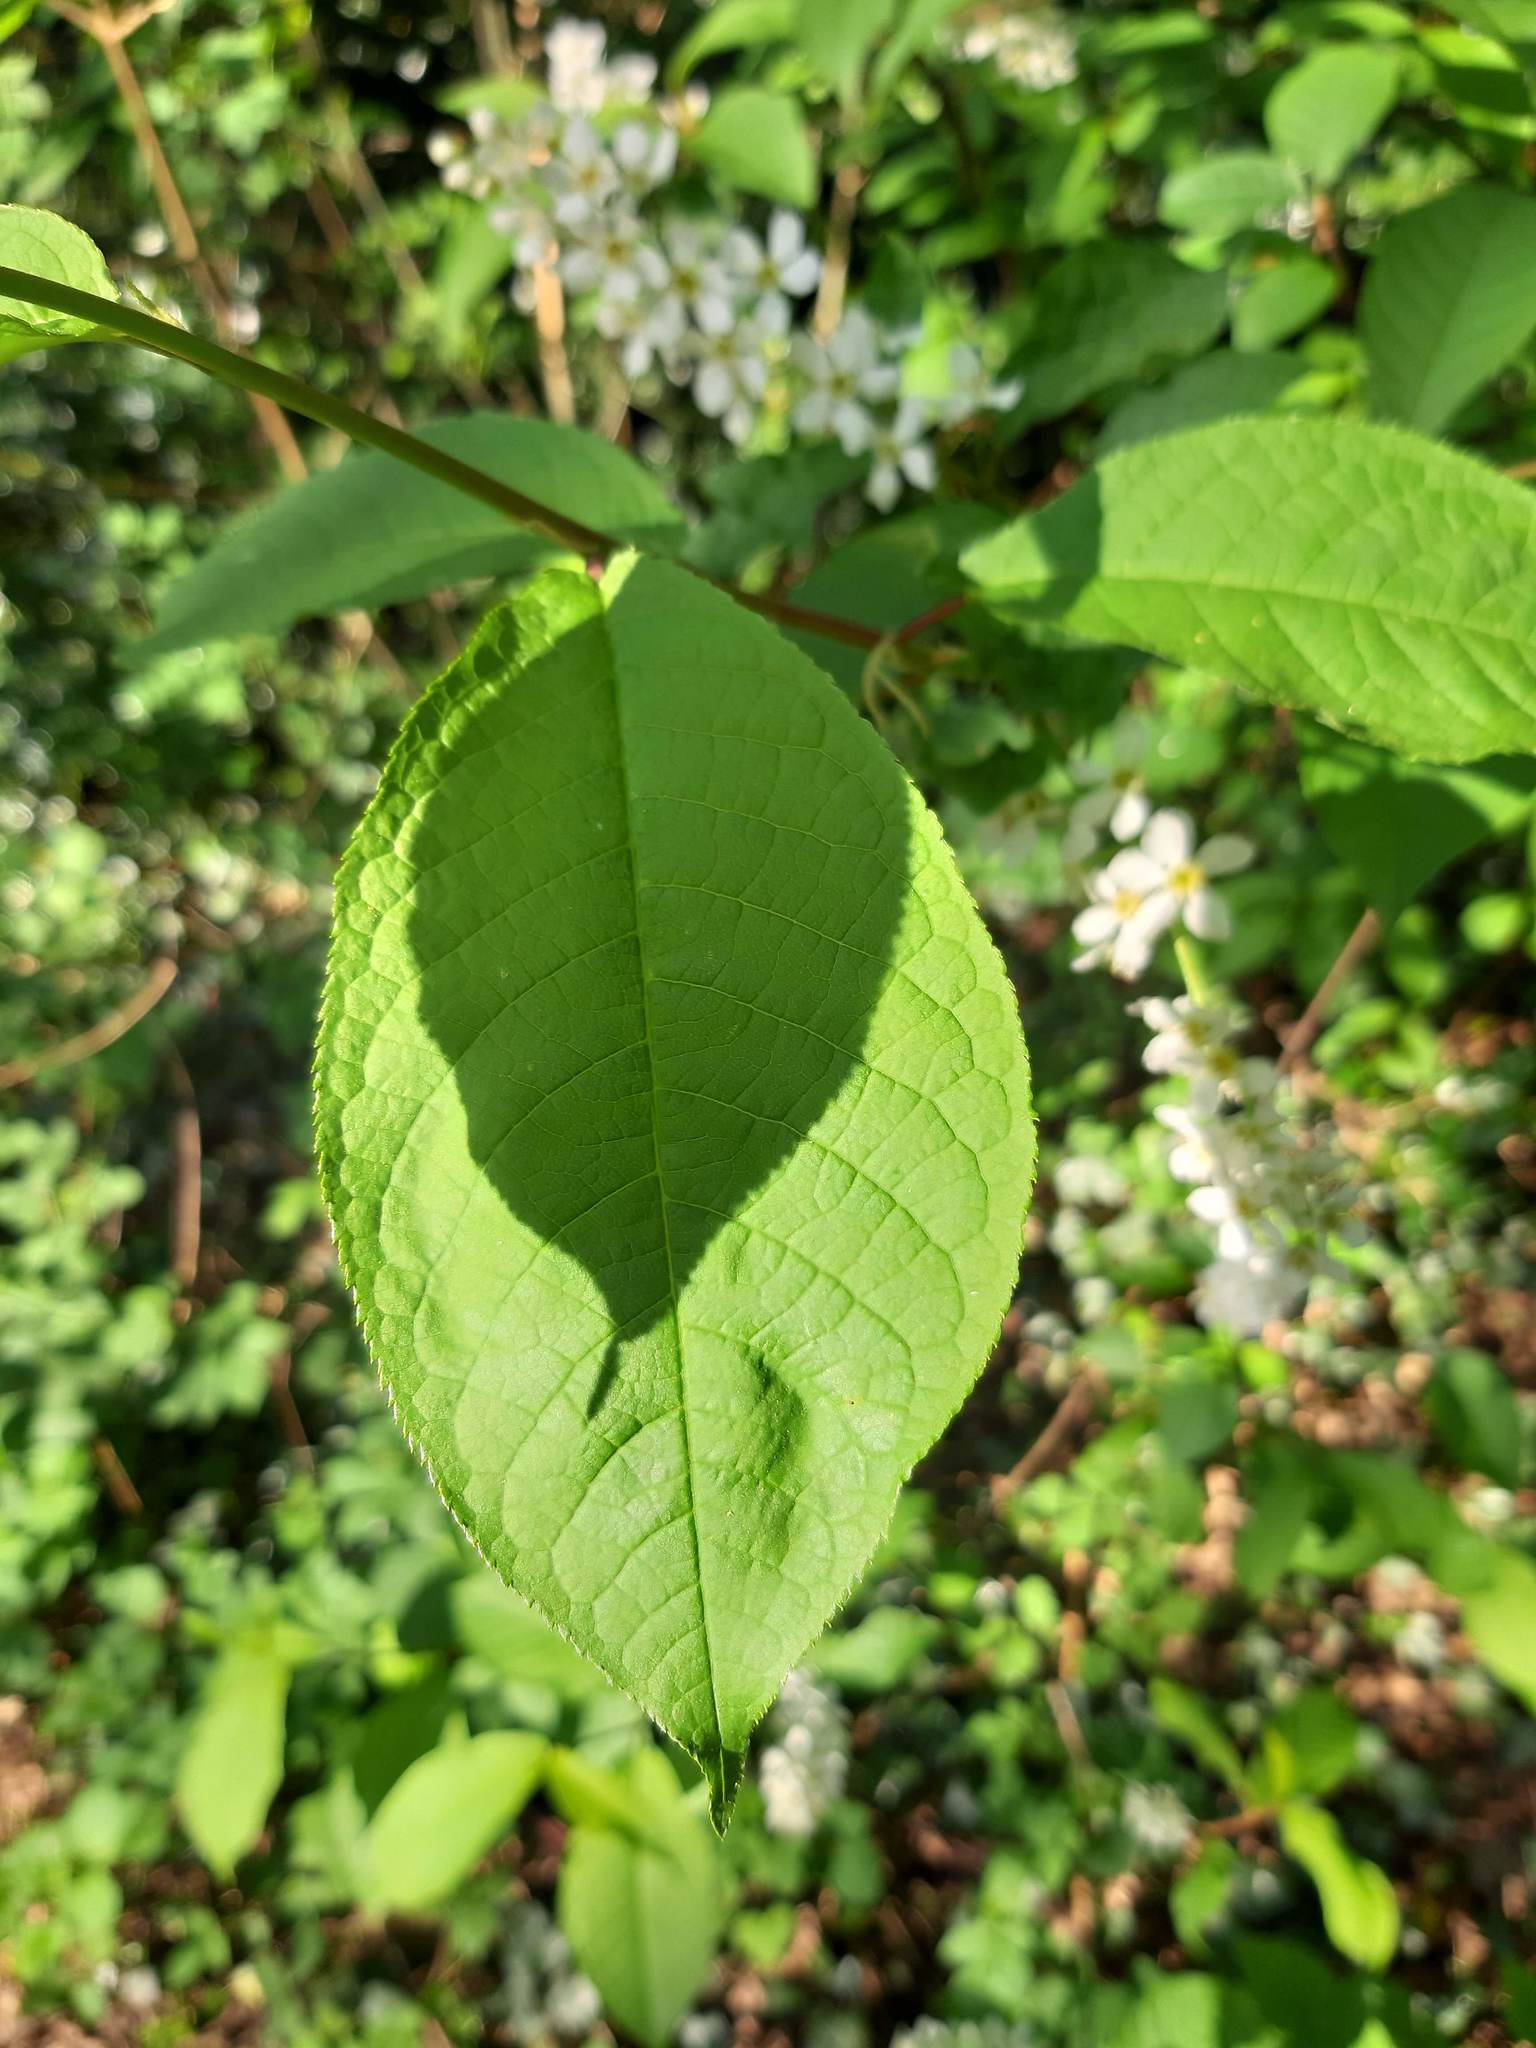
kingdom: Plantae
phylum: Tracheophyta
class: Magnoliopsida
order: Rosales
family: Rosaceae
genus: Prunus
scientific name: Prunus padus
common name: Bird cherry
